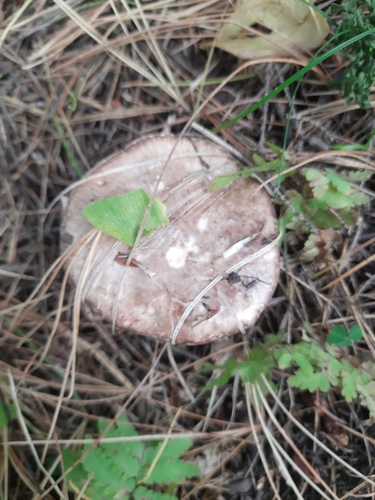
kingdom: Fungi
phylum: Basidiomycota
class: Agaricomycetes
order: Boletales
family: Suillaceae
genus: Suillus
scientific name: Suillus placidus
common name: Slippery white bolete
